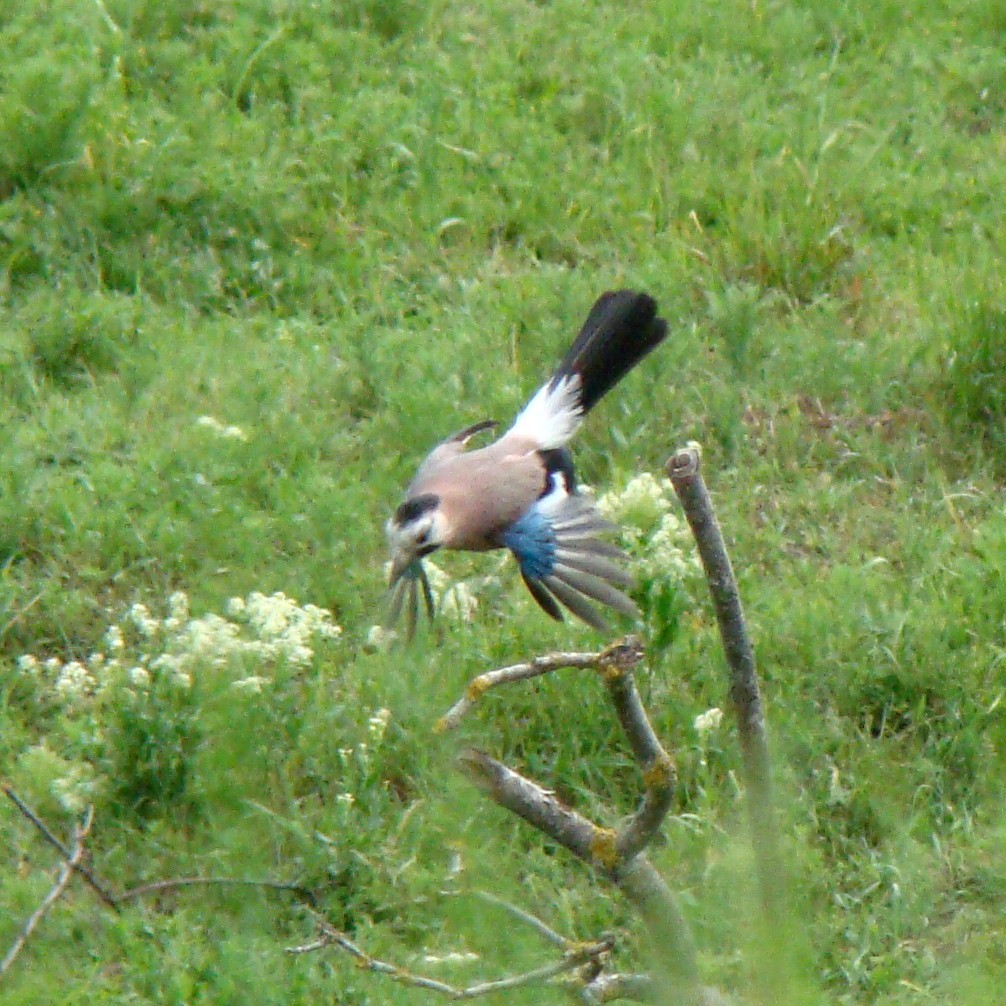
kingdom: Animalia
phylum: Chordata
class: Aves
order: Passeriformes
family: Corvidae
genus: Garrulus
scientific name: Garrulus glandarius
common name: Eurasian jay
